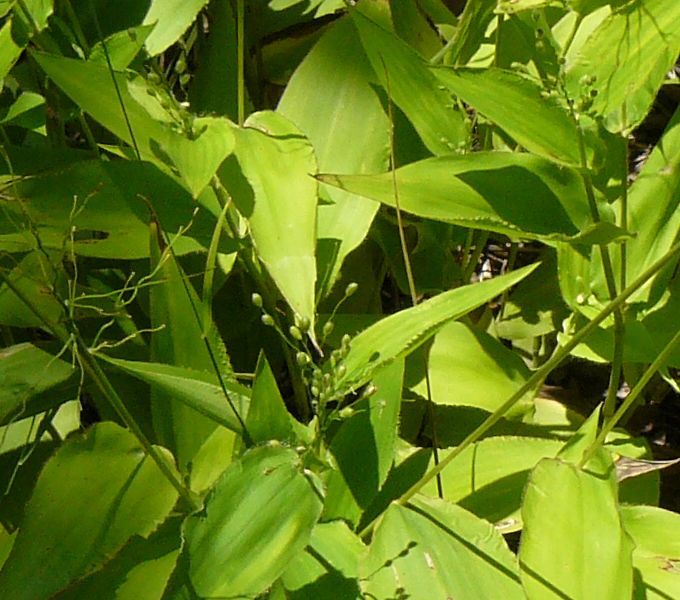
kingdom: Plantae
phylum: Tracheophyta
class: Liliopsida
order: Poales
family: Poaceae
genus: Dichanthelium
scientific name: Dichanthelium latifolium
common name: Broad-leaved panicgrass
